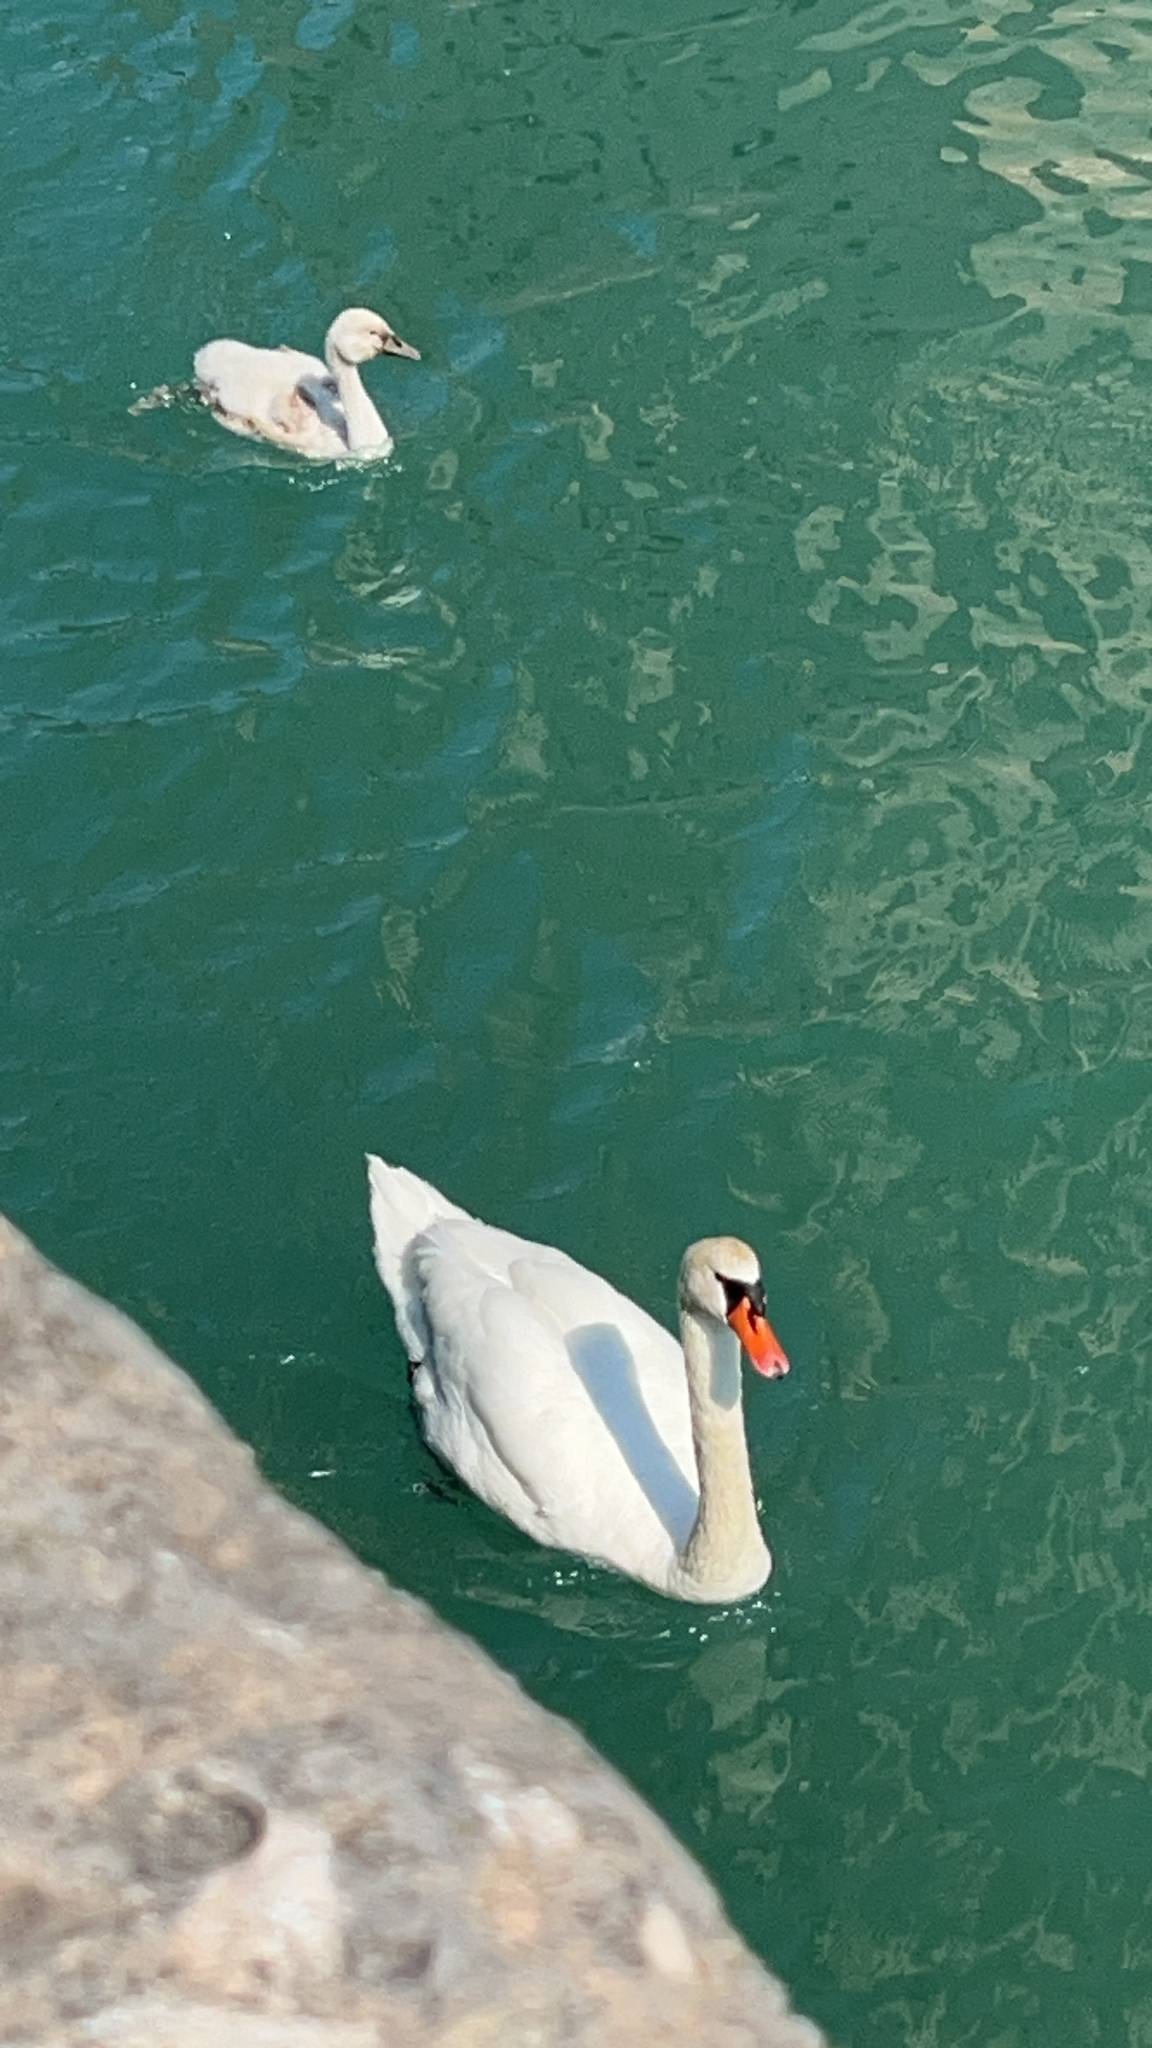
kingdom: Animalia
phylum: Chordata
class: Aves
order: Anseriformes
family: Anatidae
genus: Cygnus
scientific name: Cygnus olor
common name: Mute swan
